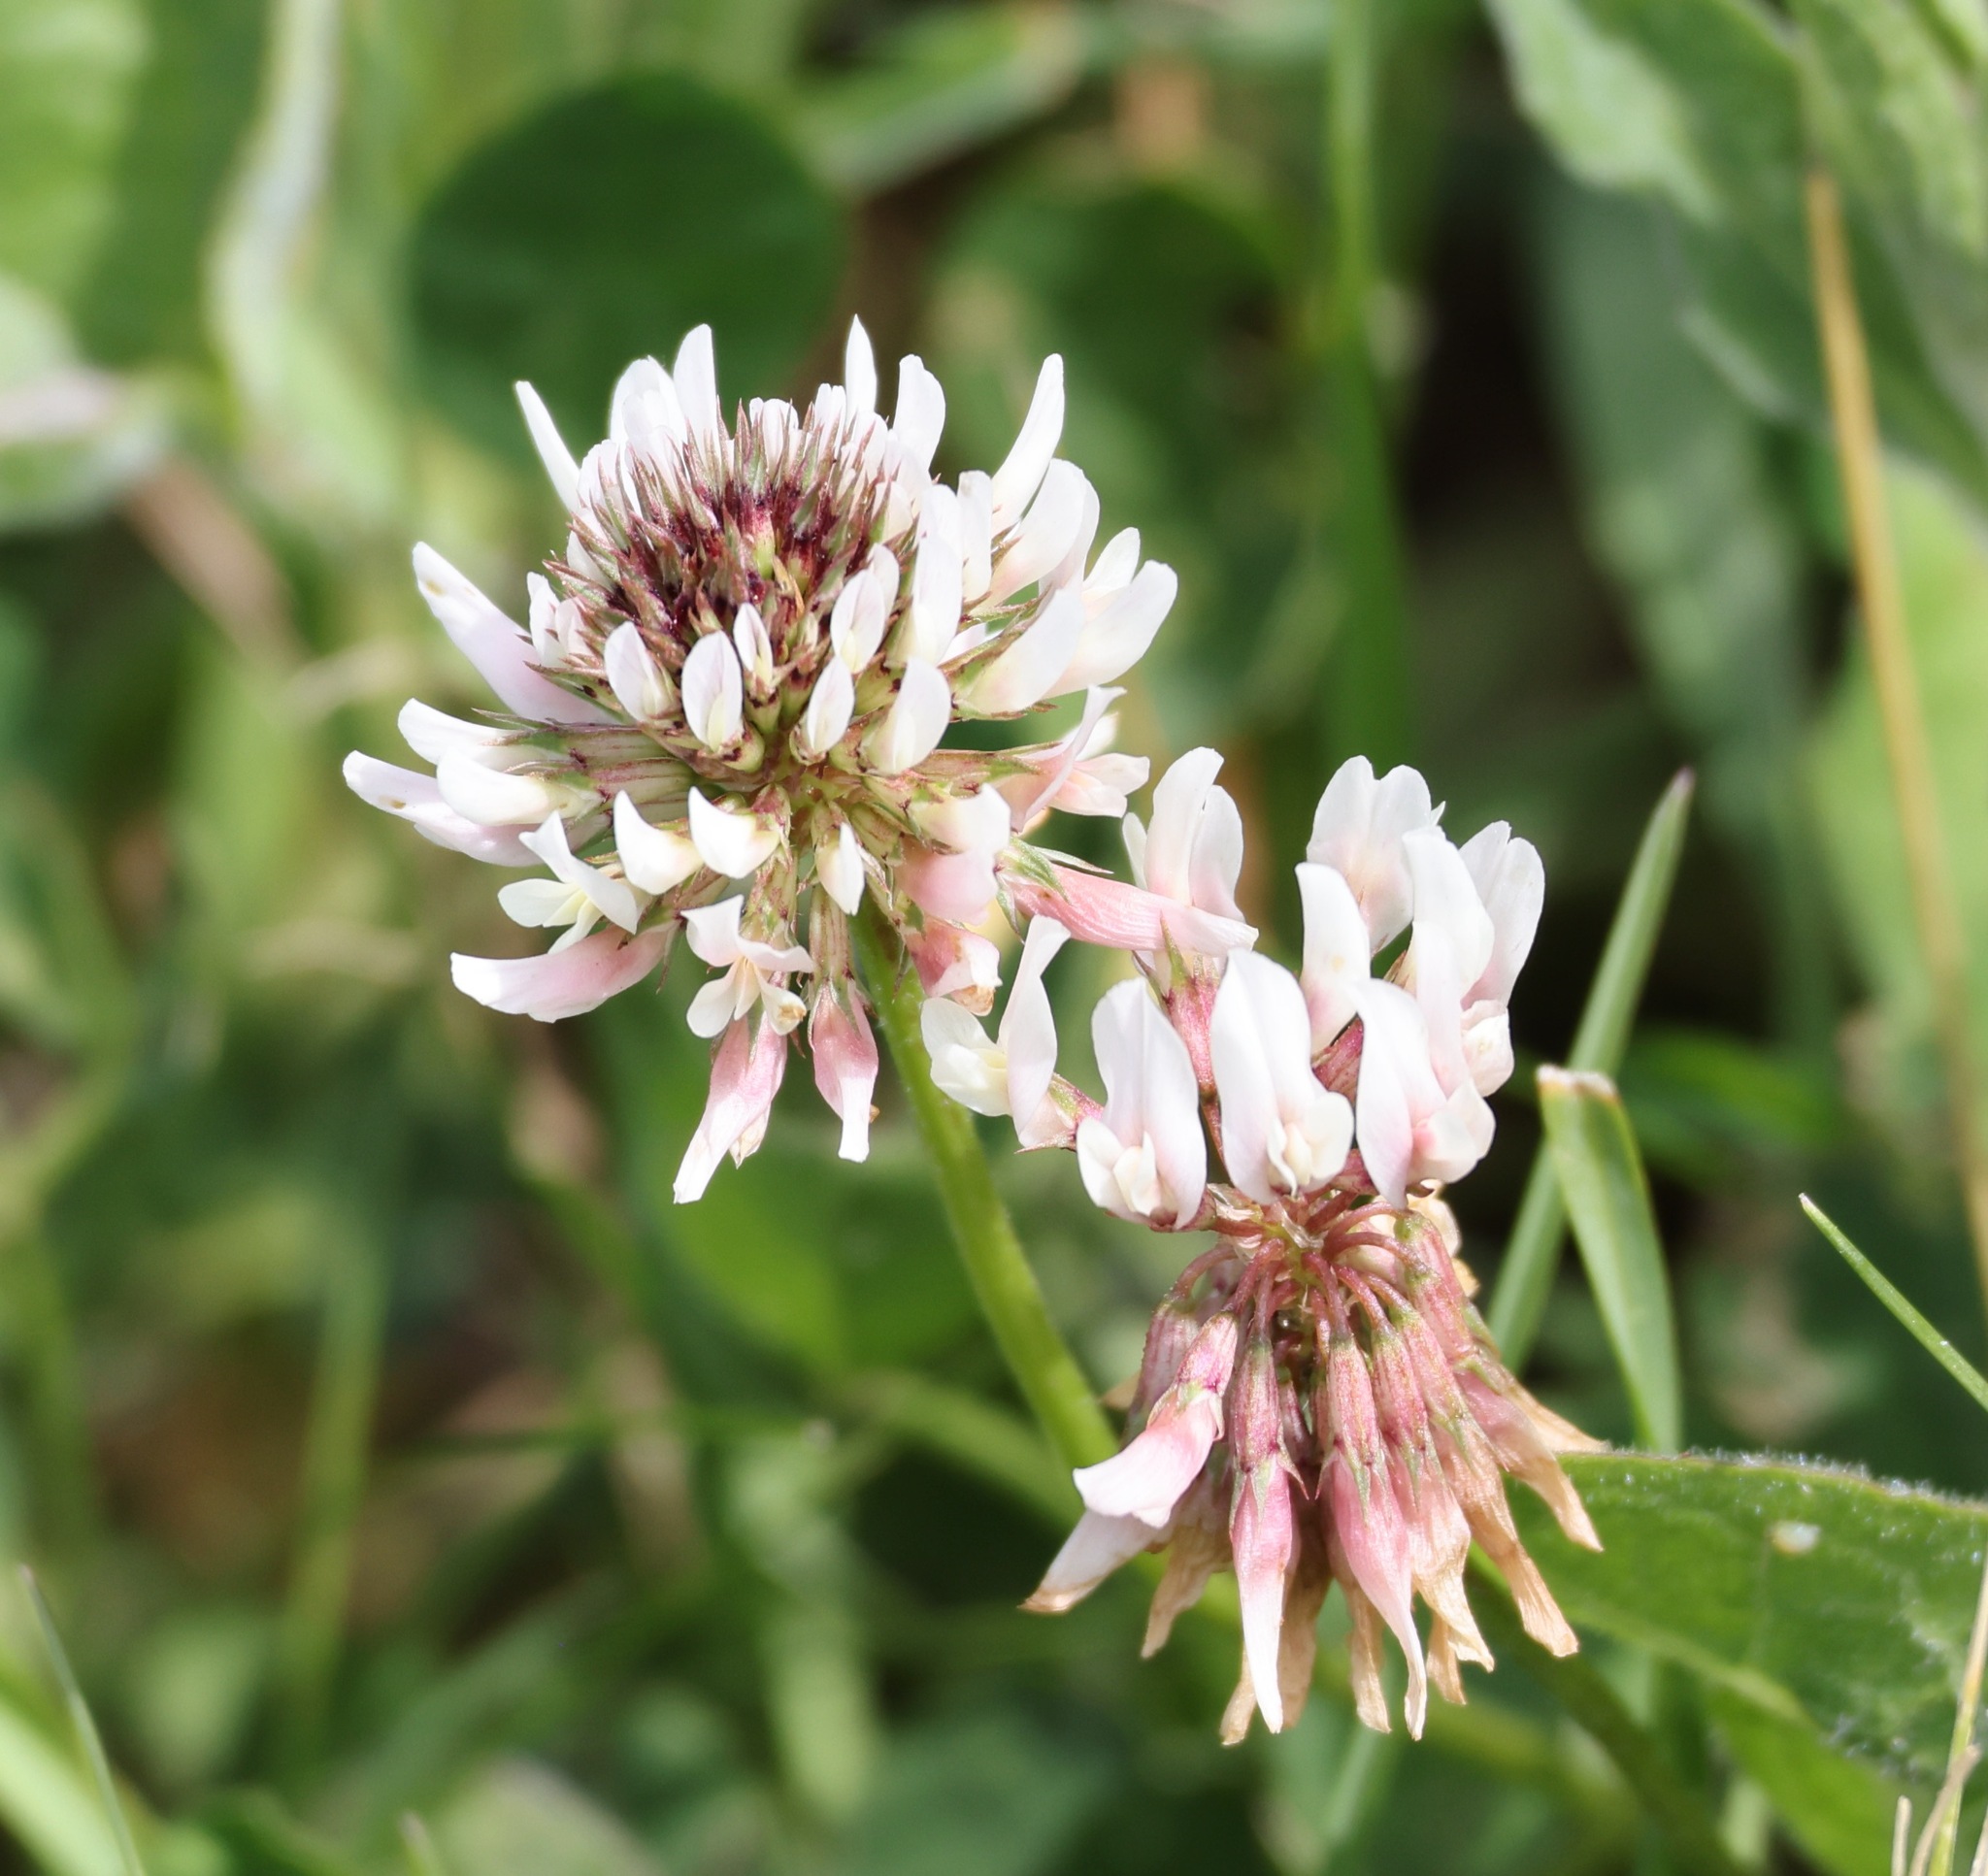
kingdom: Plantae
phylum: Tracheophyta
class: Magnoliopsida
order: Fabales
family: Fabaceae
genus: Trifolium
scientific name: Trifolium repens
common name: White clover
